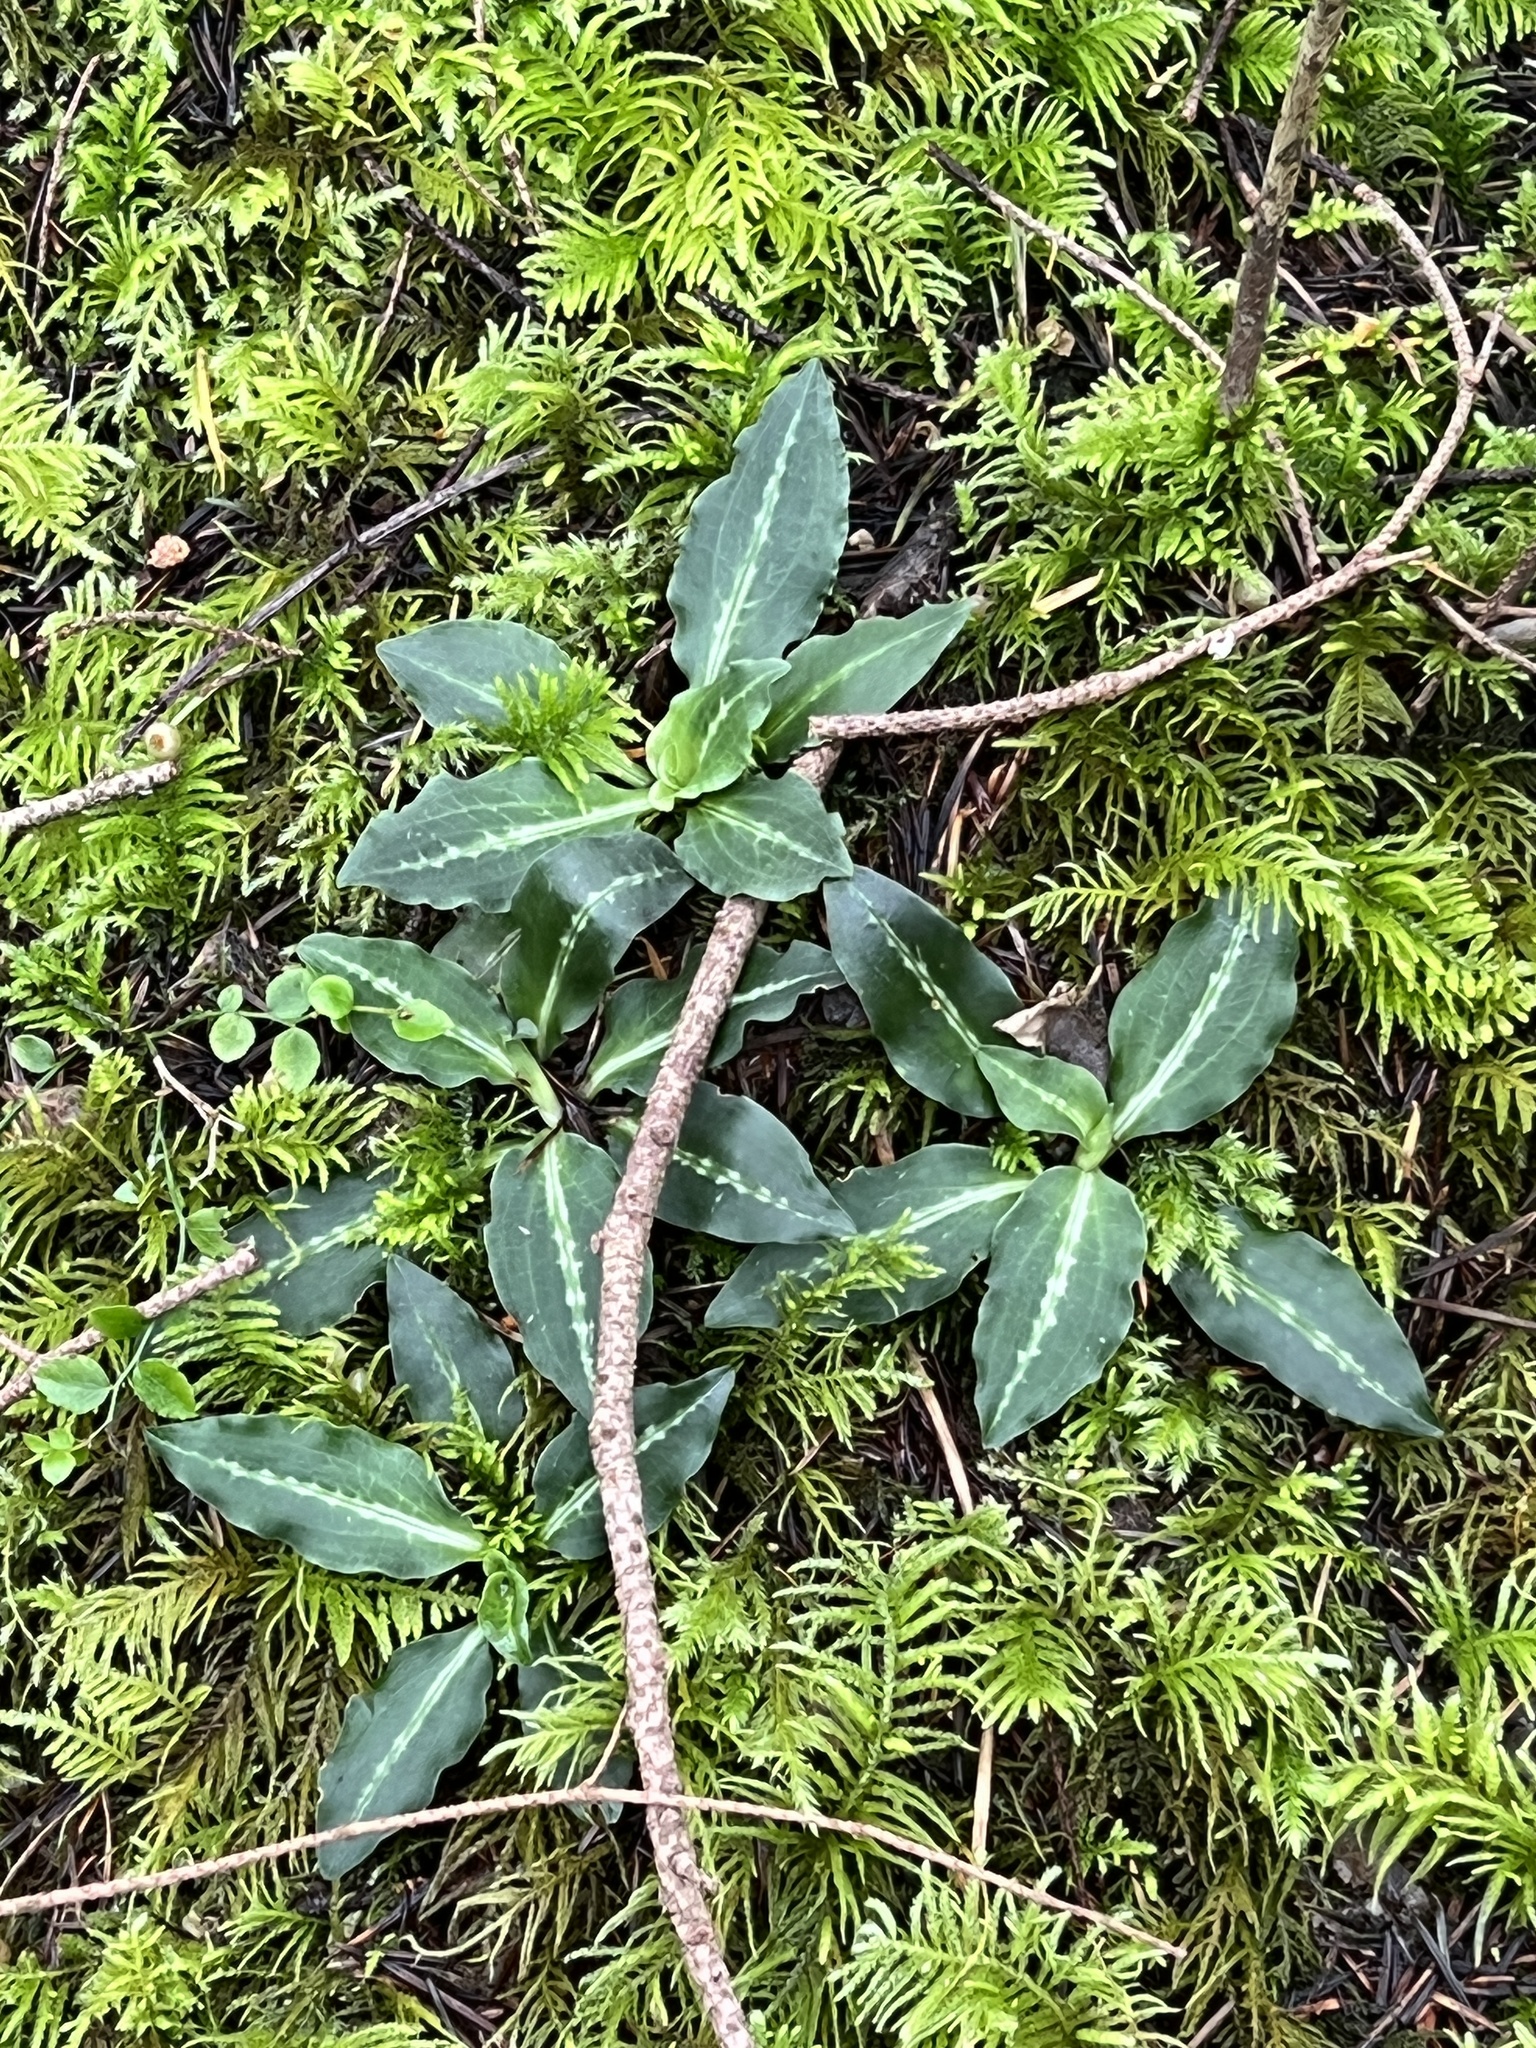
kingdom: Plantae
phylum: Tracheophyta
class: Liliopsida
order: Asparagales
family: Orchidaceae
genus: Goodyera
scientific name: Goodyera oblongifolia
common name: Giant rattlesnake-plantain
